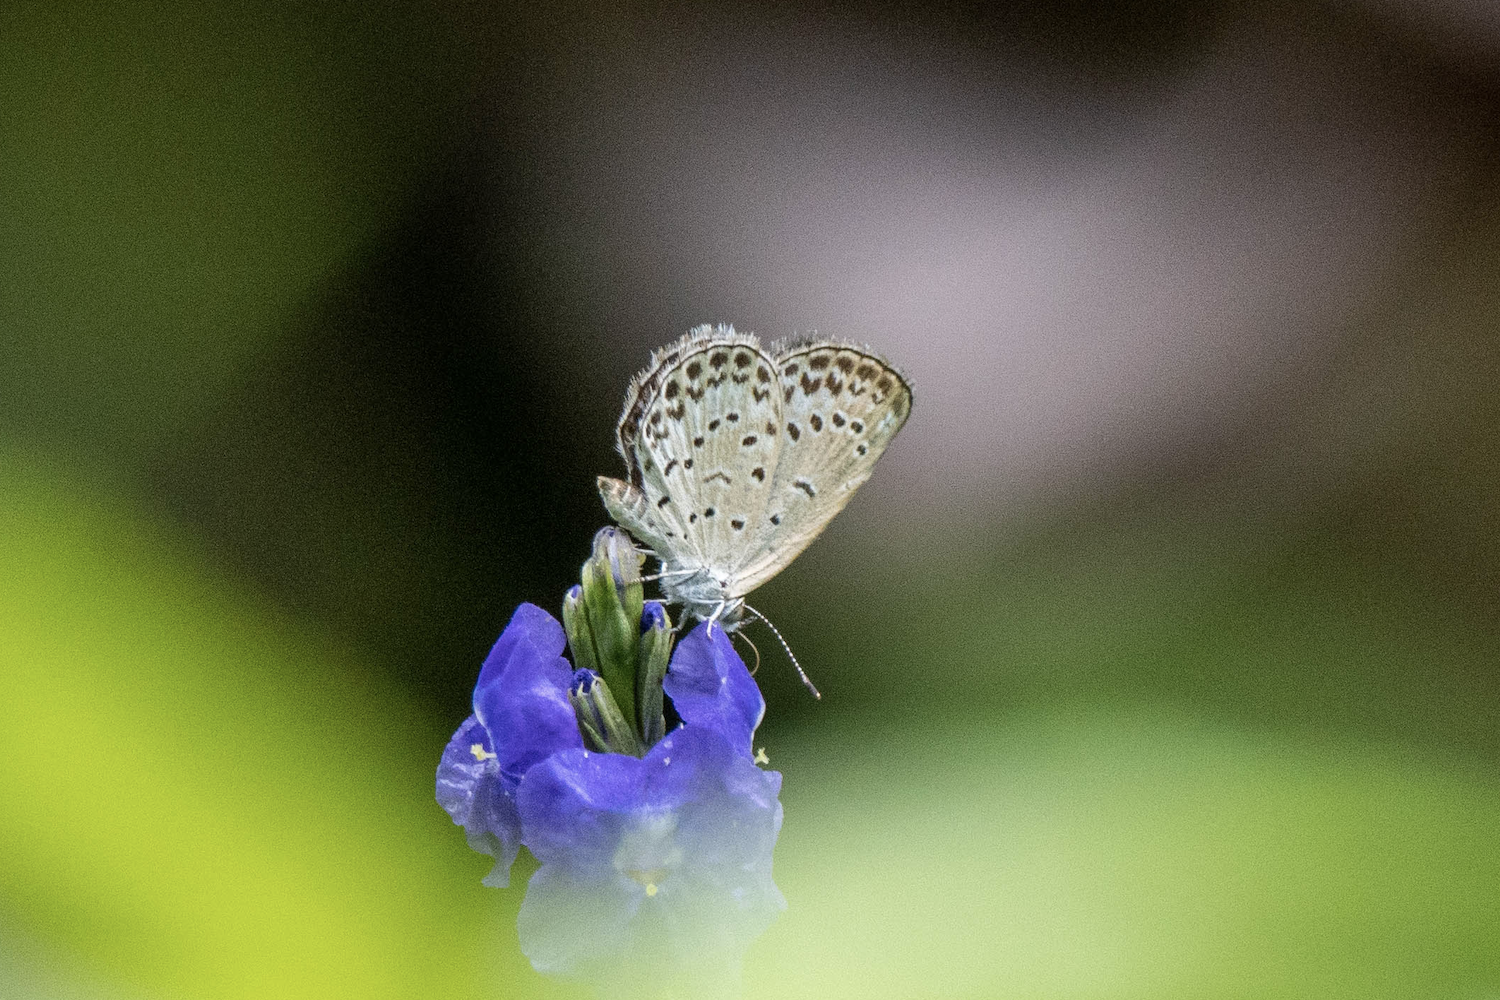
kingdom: Animalia
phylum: Arthropoda
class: Insecta
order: Lepidoptera
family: Lycaenidae
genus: Pseudozizeeria
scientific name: Pseudozizeeria maha
